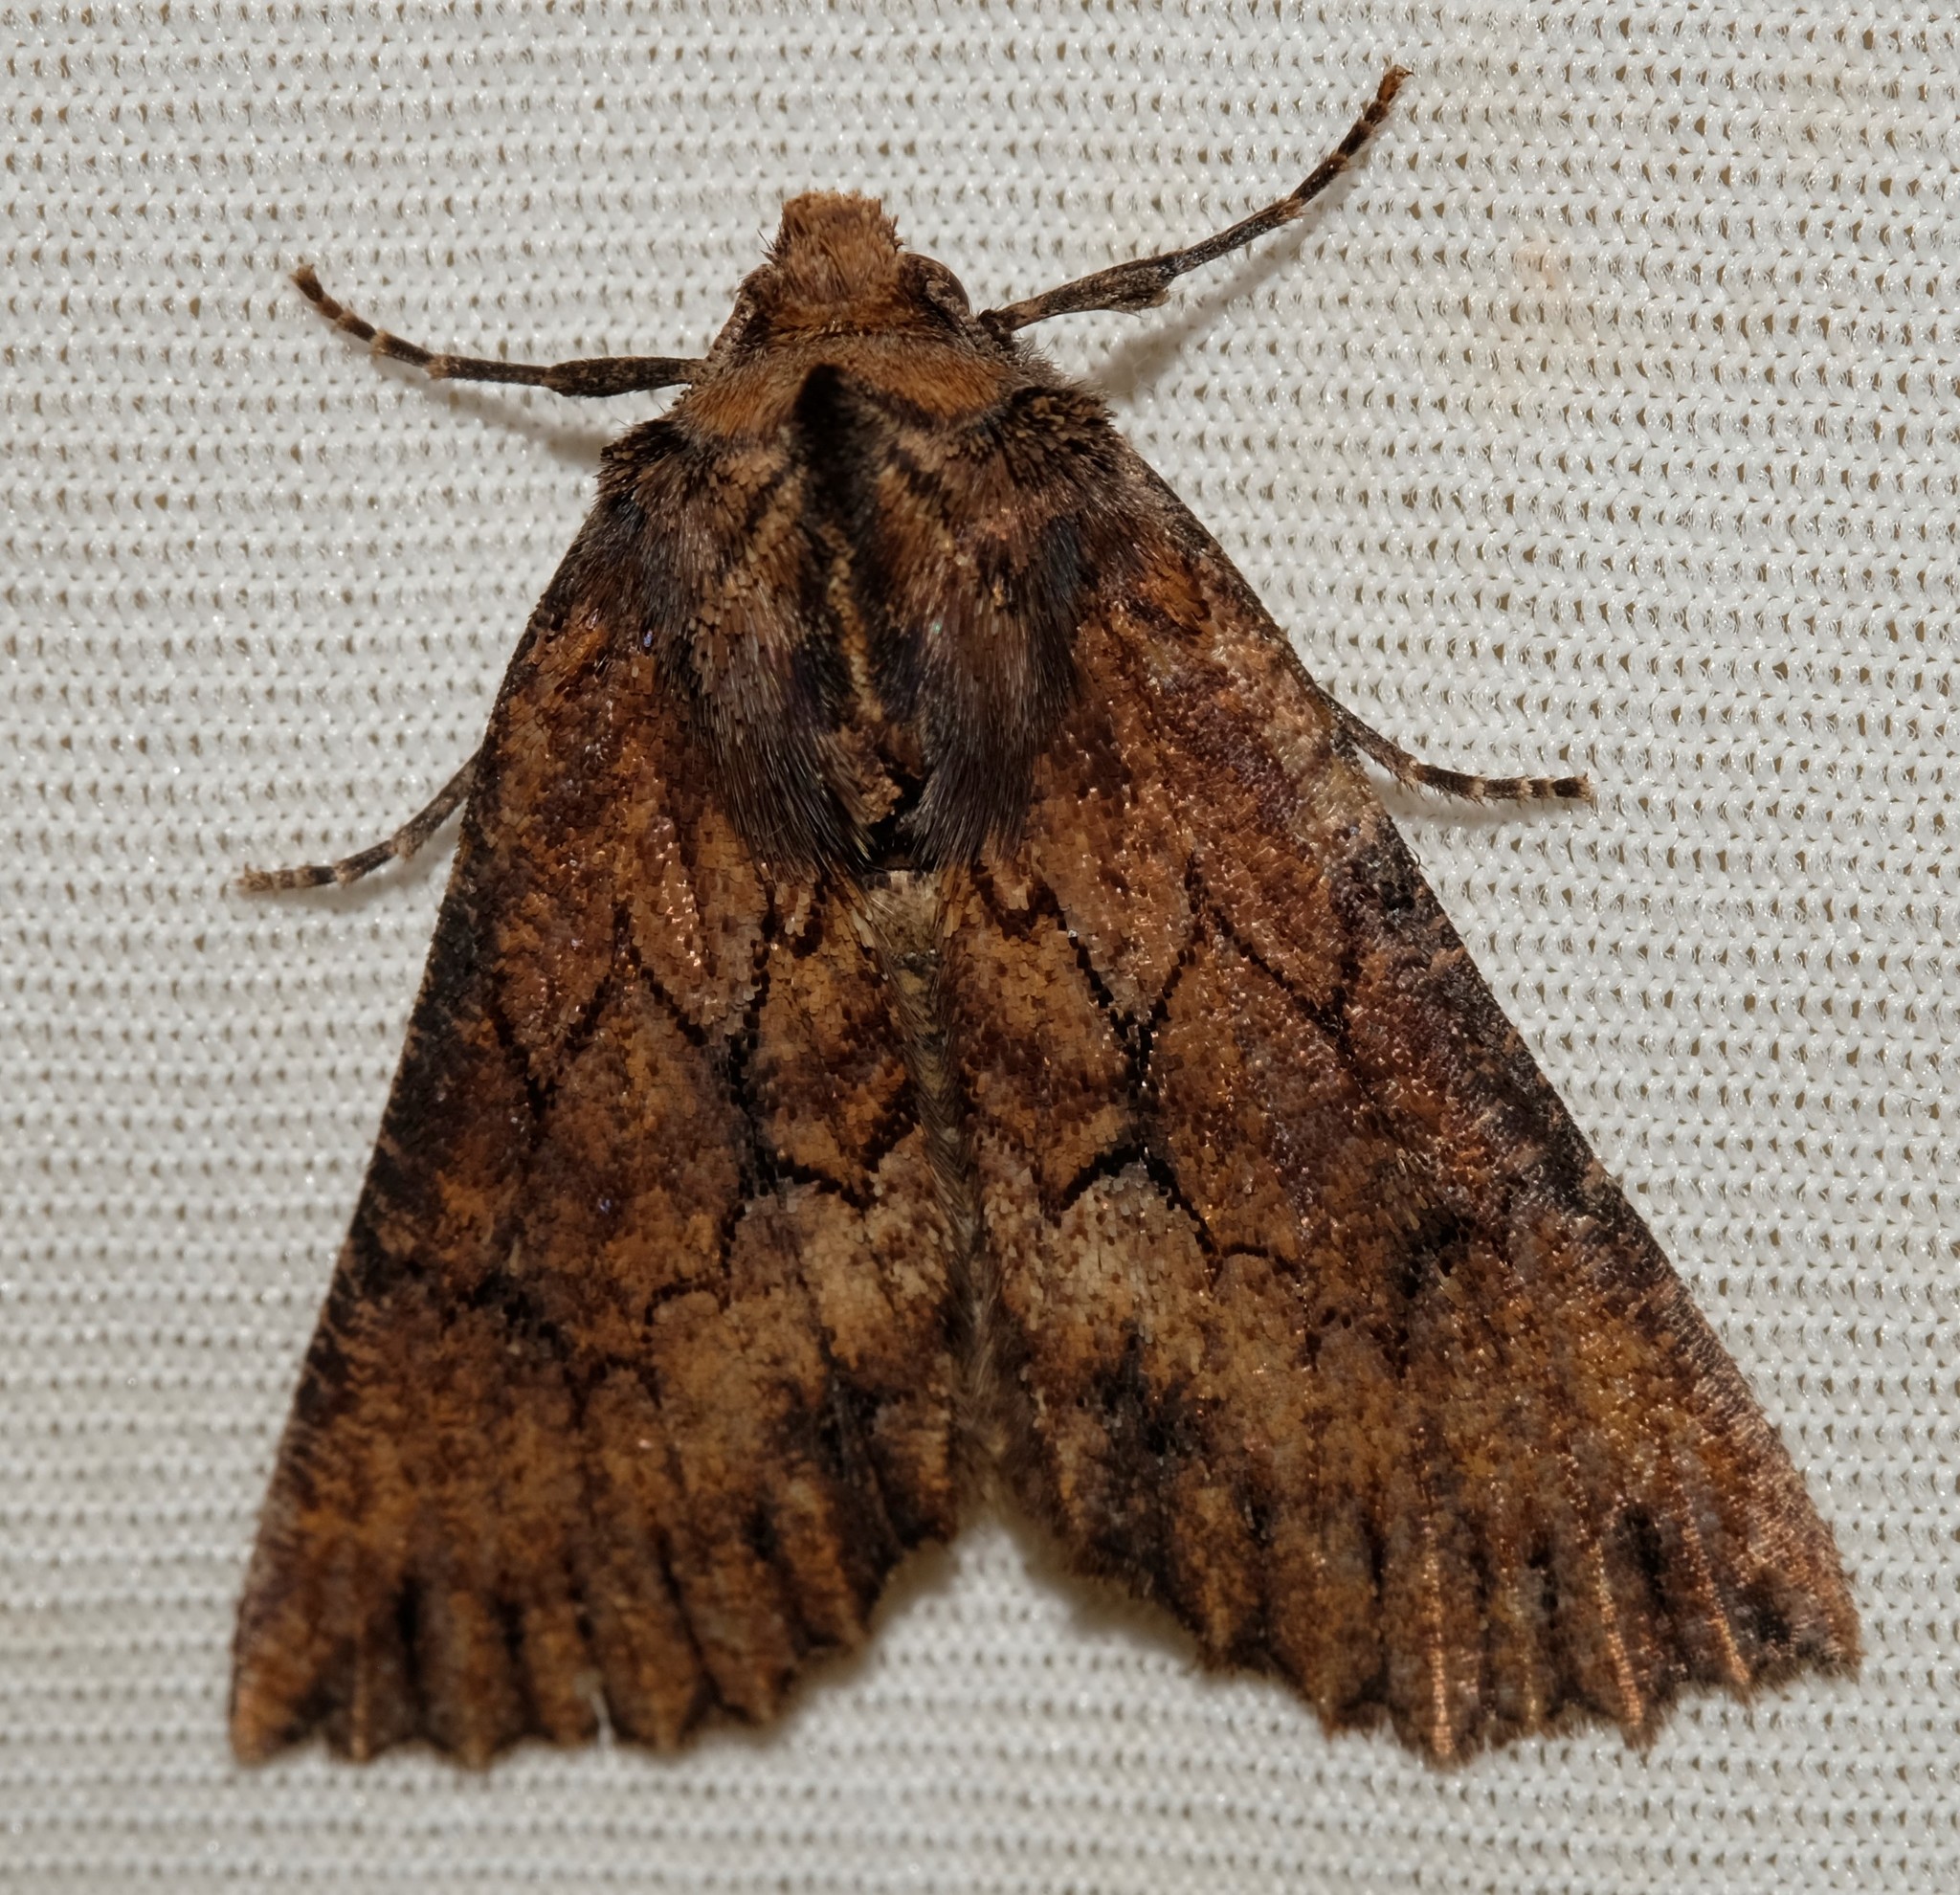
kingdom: Animalia
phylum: Arthropoda
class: Insecta
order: Lepidoptera
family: Geometridae
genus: Nisista
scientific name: Nisista serrata
